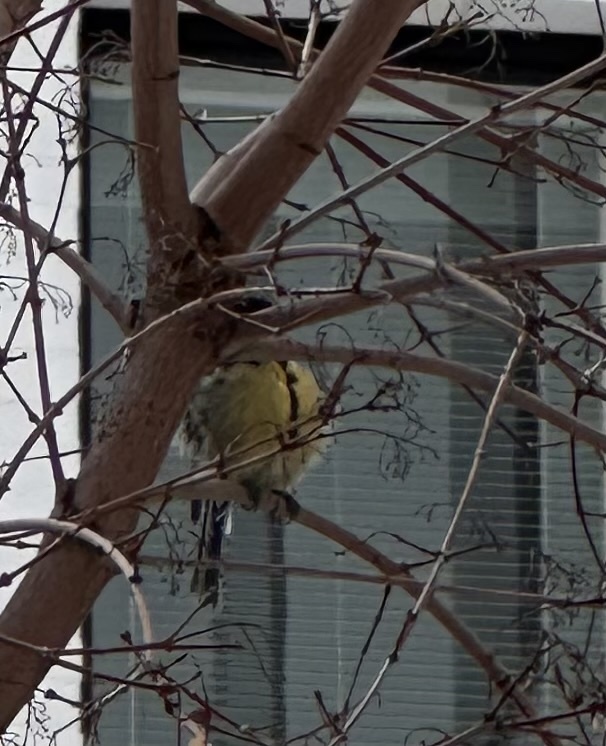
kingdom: Animalia
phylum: Chordata
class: Aves
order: Passeriformes
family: Paridae
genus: Parus
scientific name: Parus major
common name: Great tit
